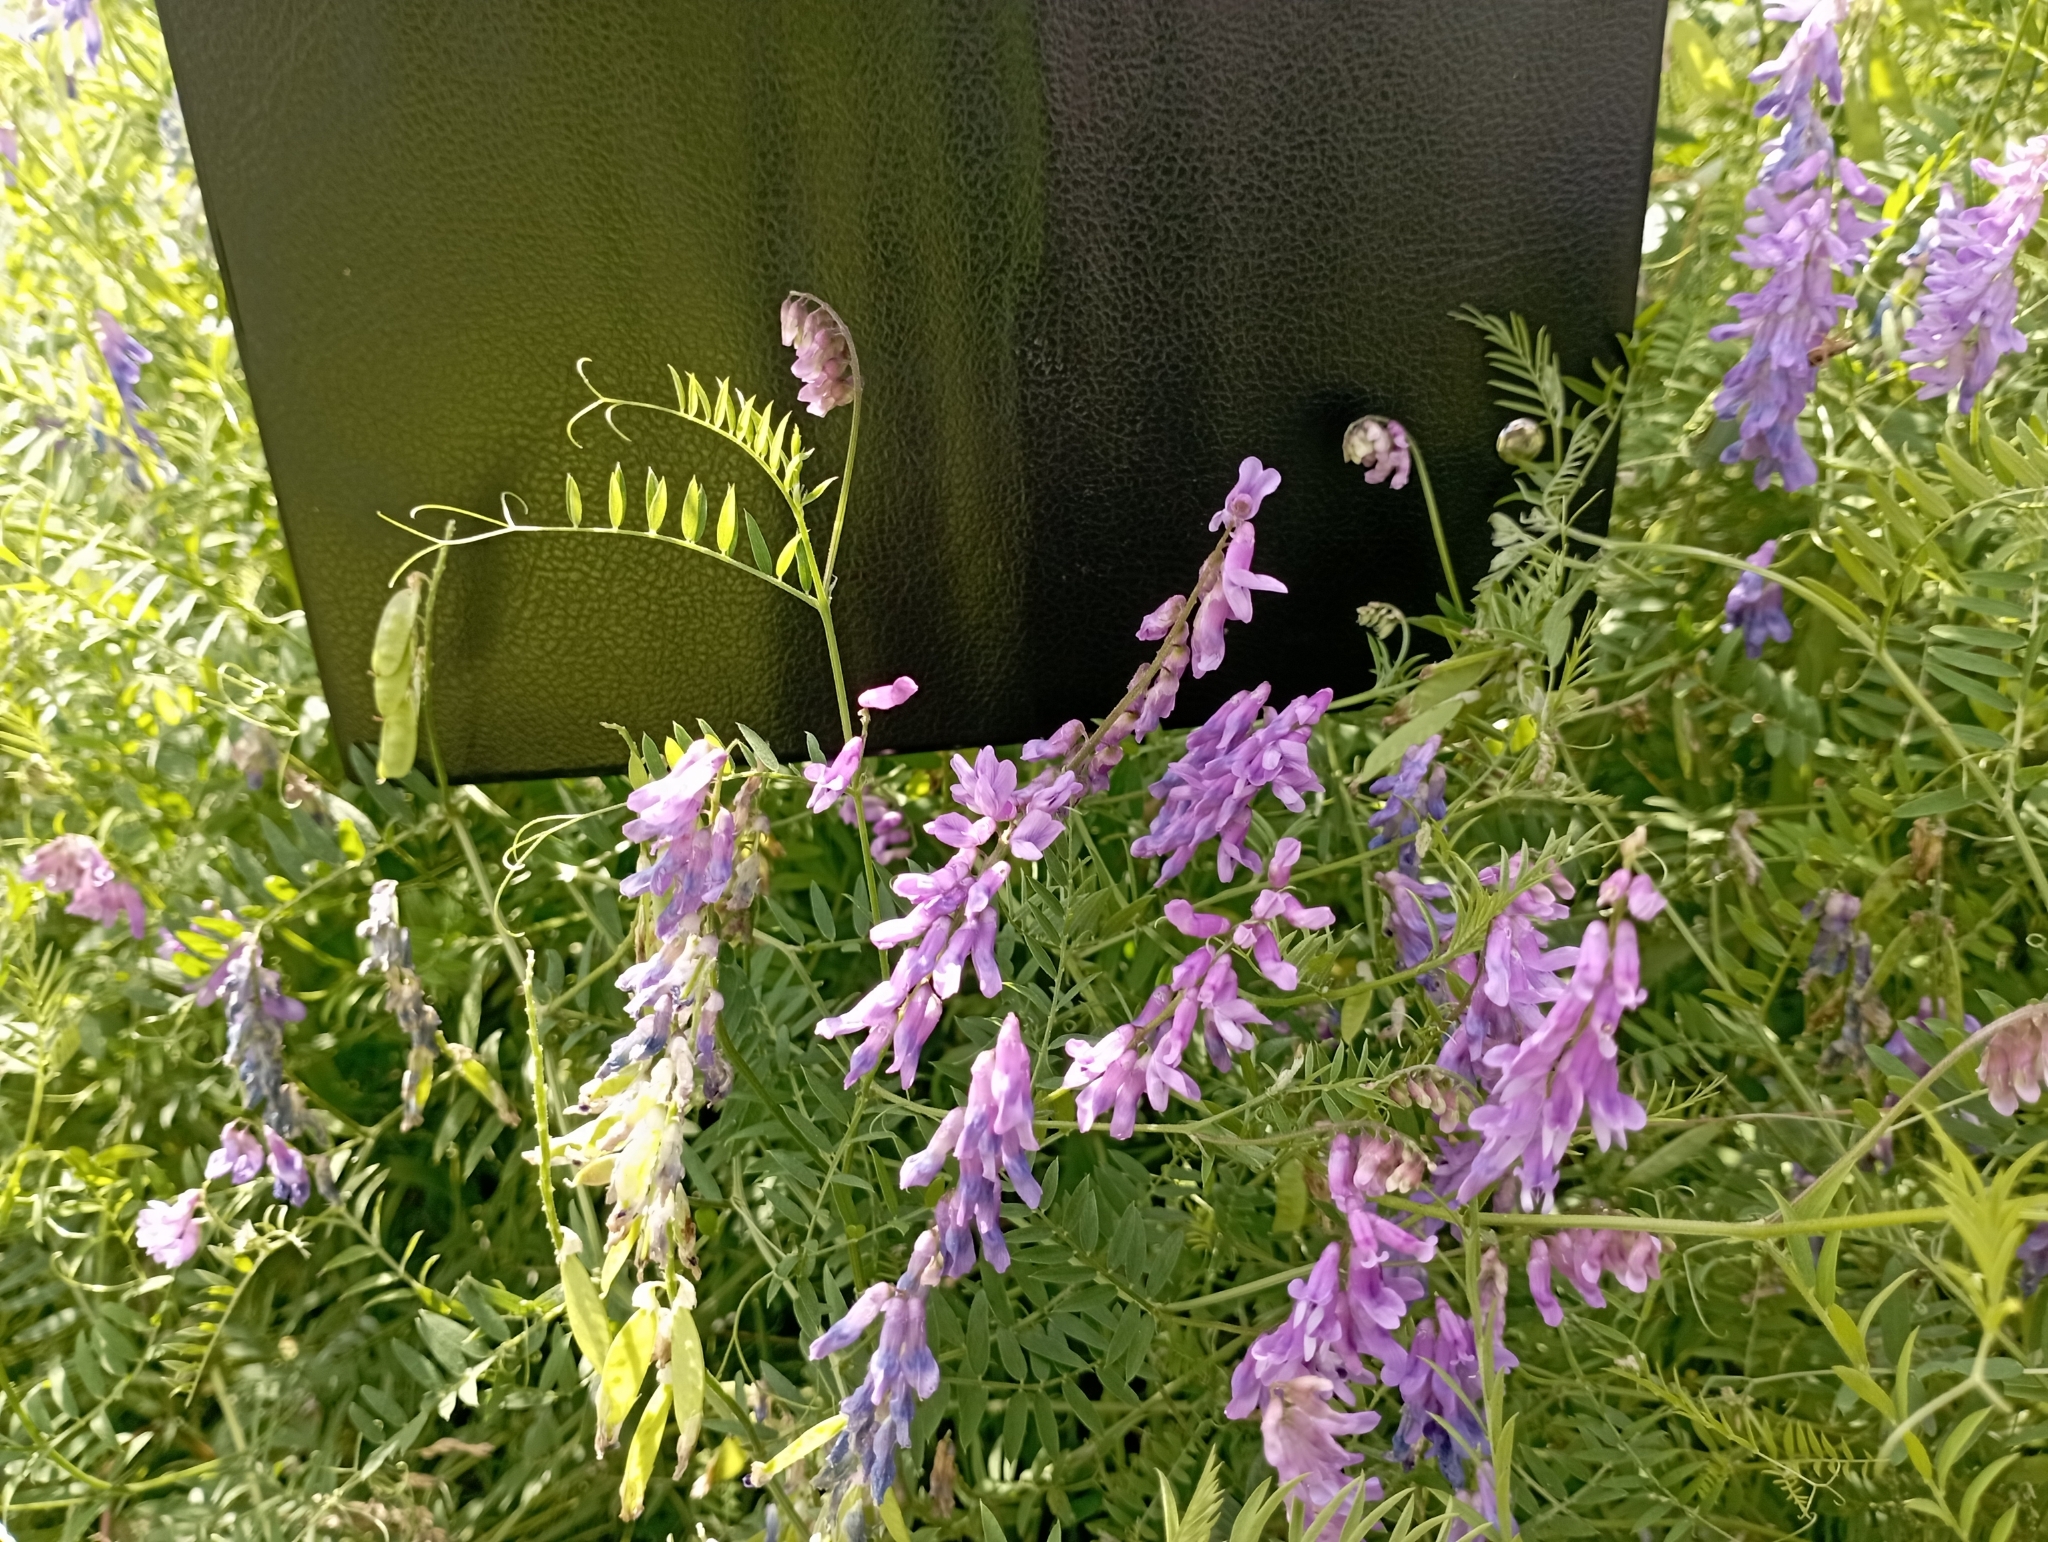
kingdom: Plantae
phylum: Tracheophyta
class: Magnoliopsida
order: Fabales
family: Fabaceae
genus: Vicia
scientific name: Vicia cracca
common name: Bird vetch
